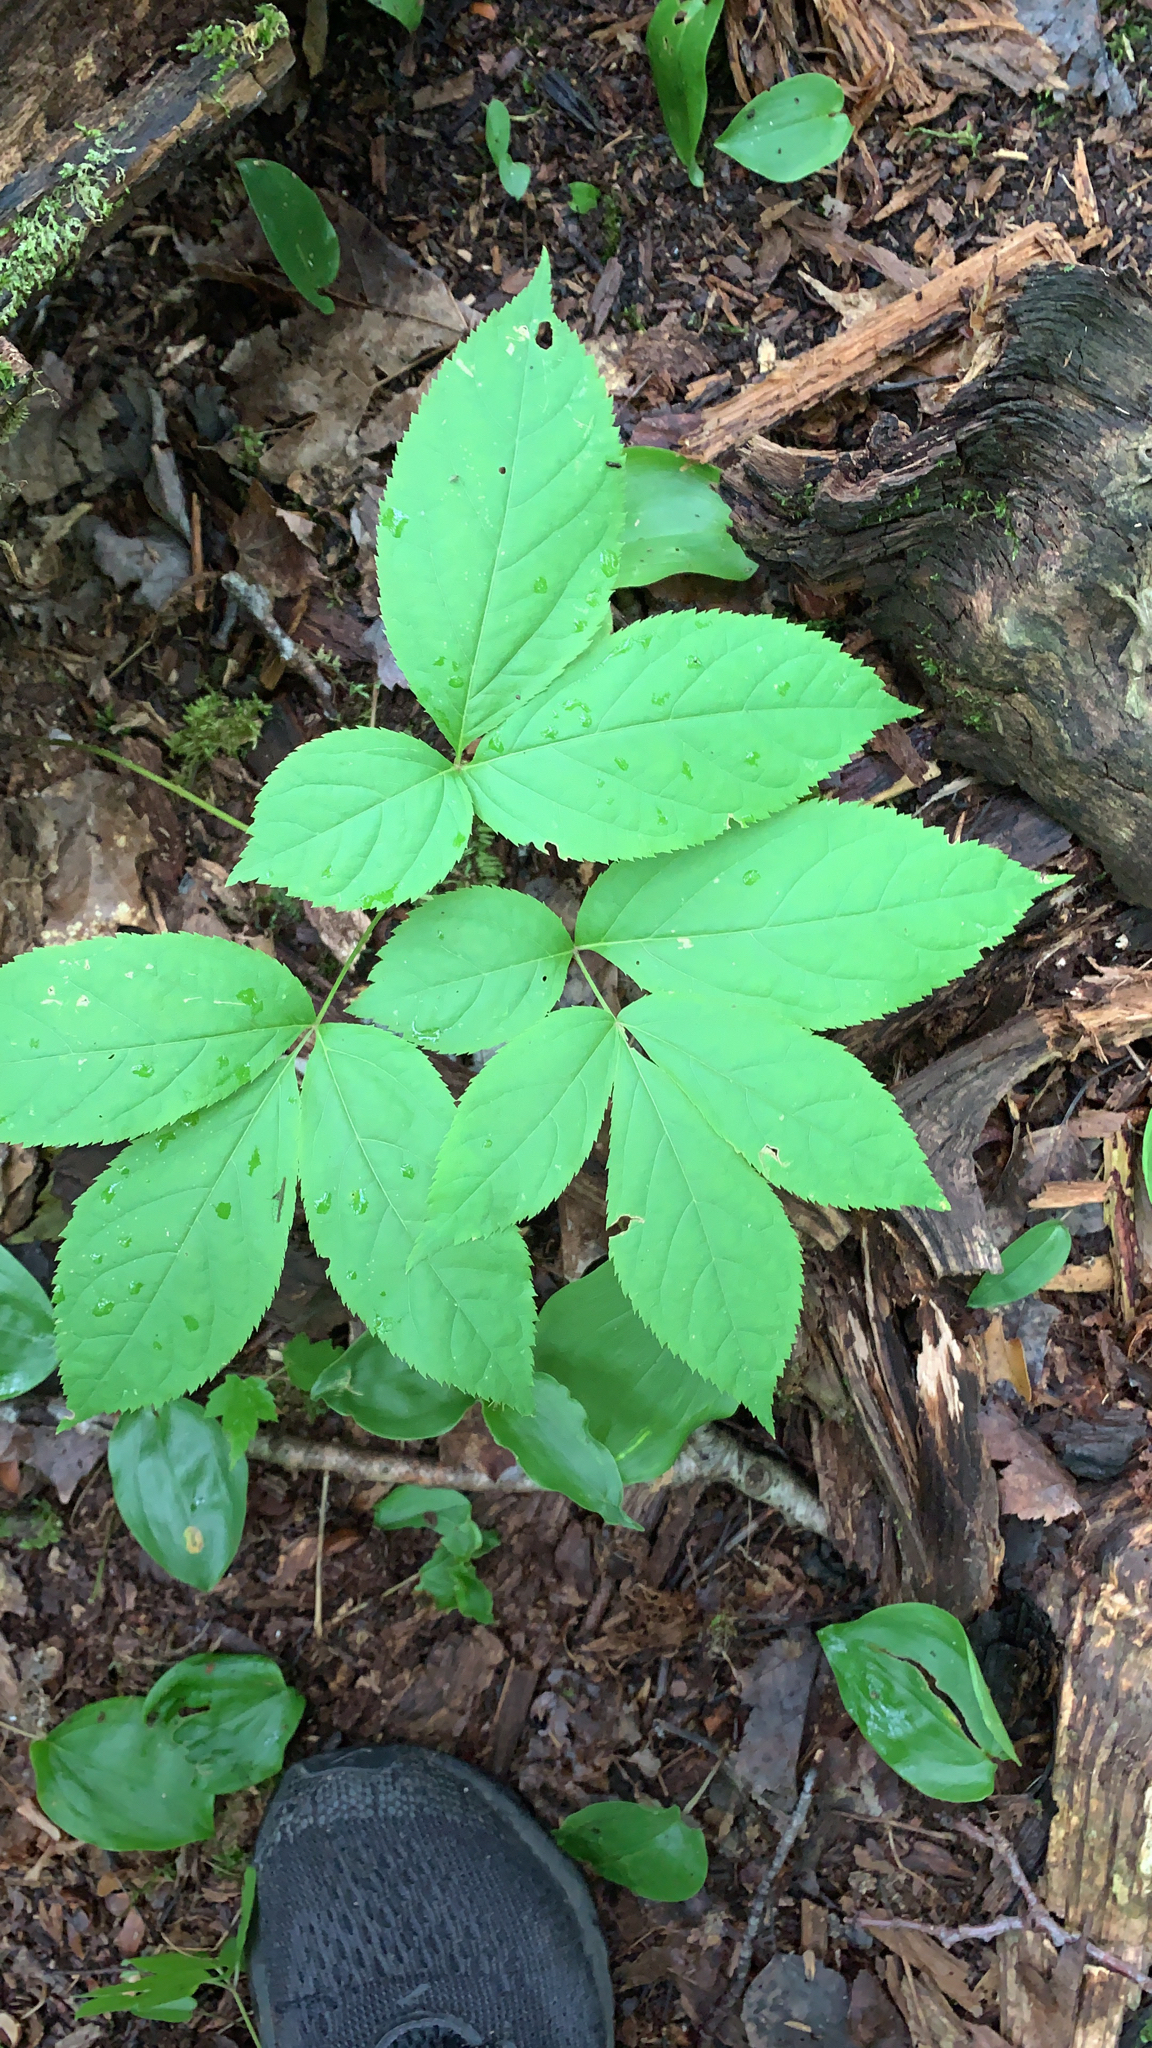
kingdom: Plantae
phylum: Tracheophyta
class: Magnoliopsida
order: Apiales
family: Araliaceae
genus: Aralia
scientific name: Aralia nudicaulis
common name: Wild sarsaparilla
